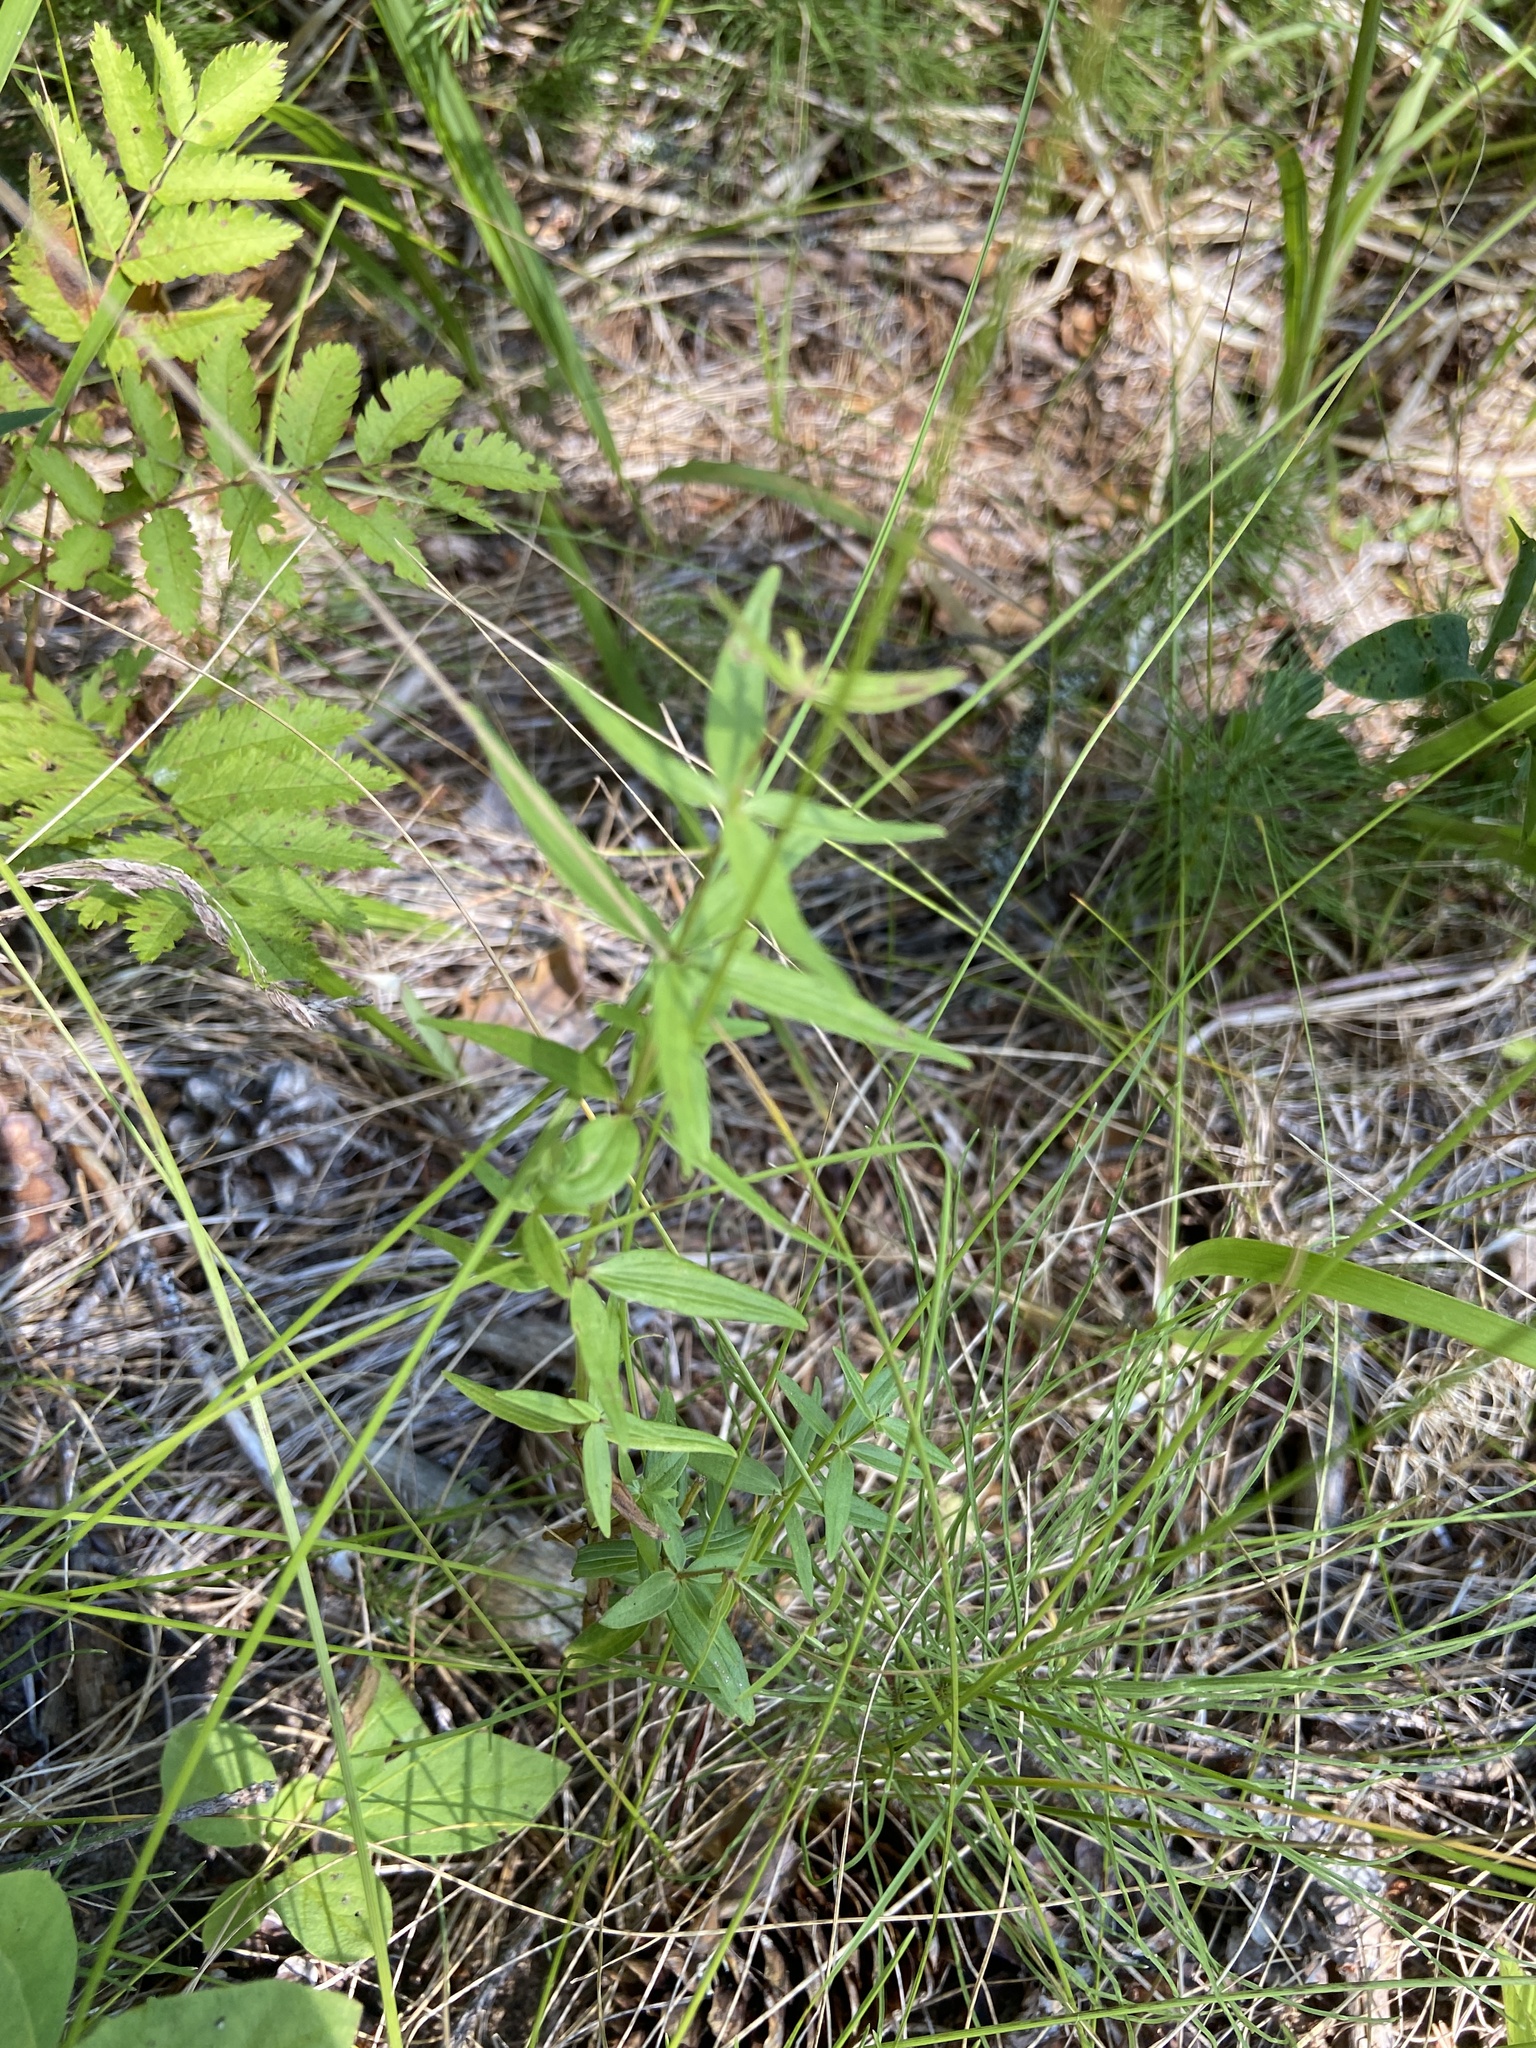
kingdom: Plantae
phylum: Tracheophyta
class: Magnoliopsida
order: Gentianales
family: Rubiaceae
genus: Galium
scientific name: Galium boreale
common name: Northern bedstraw
